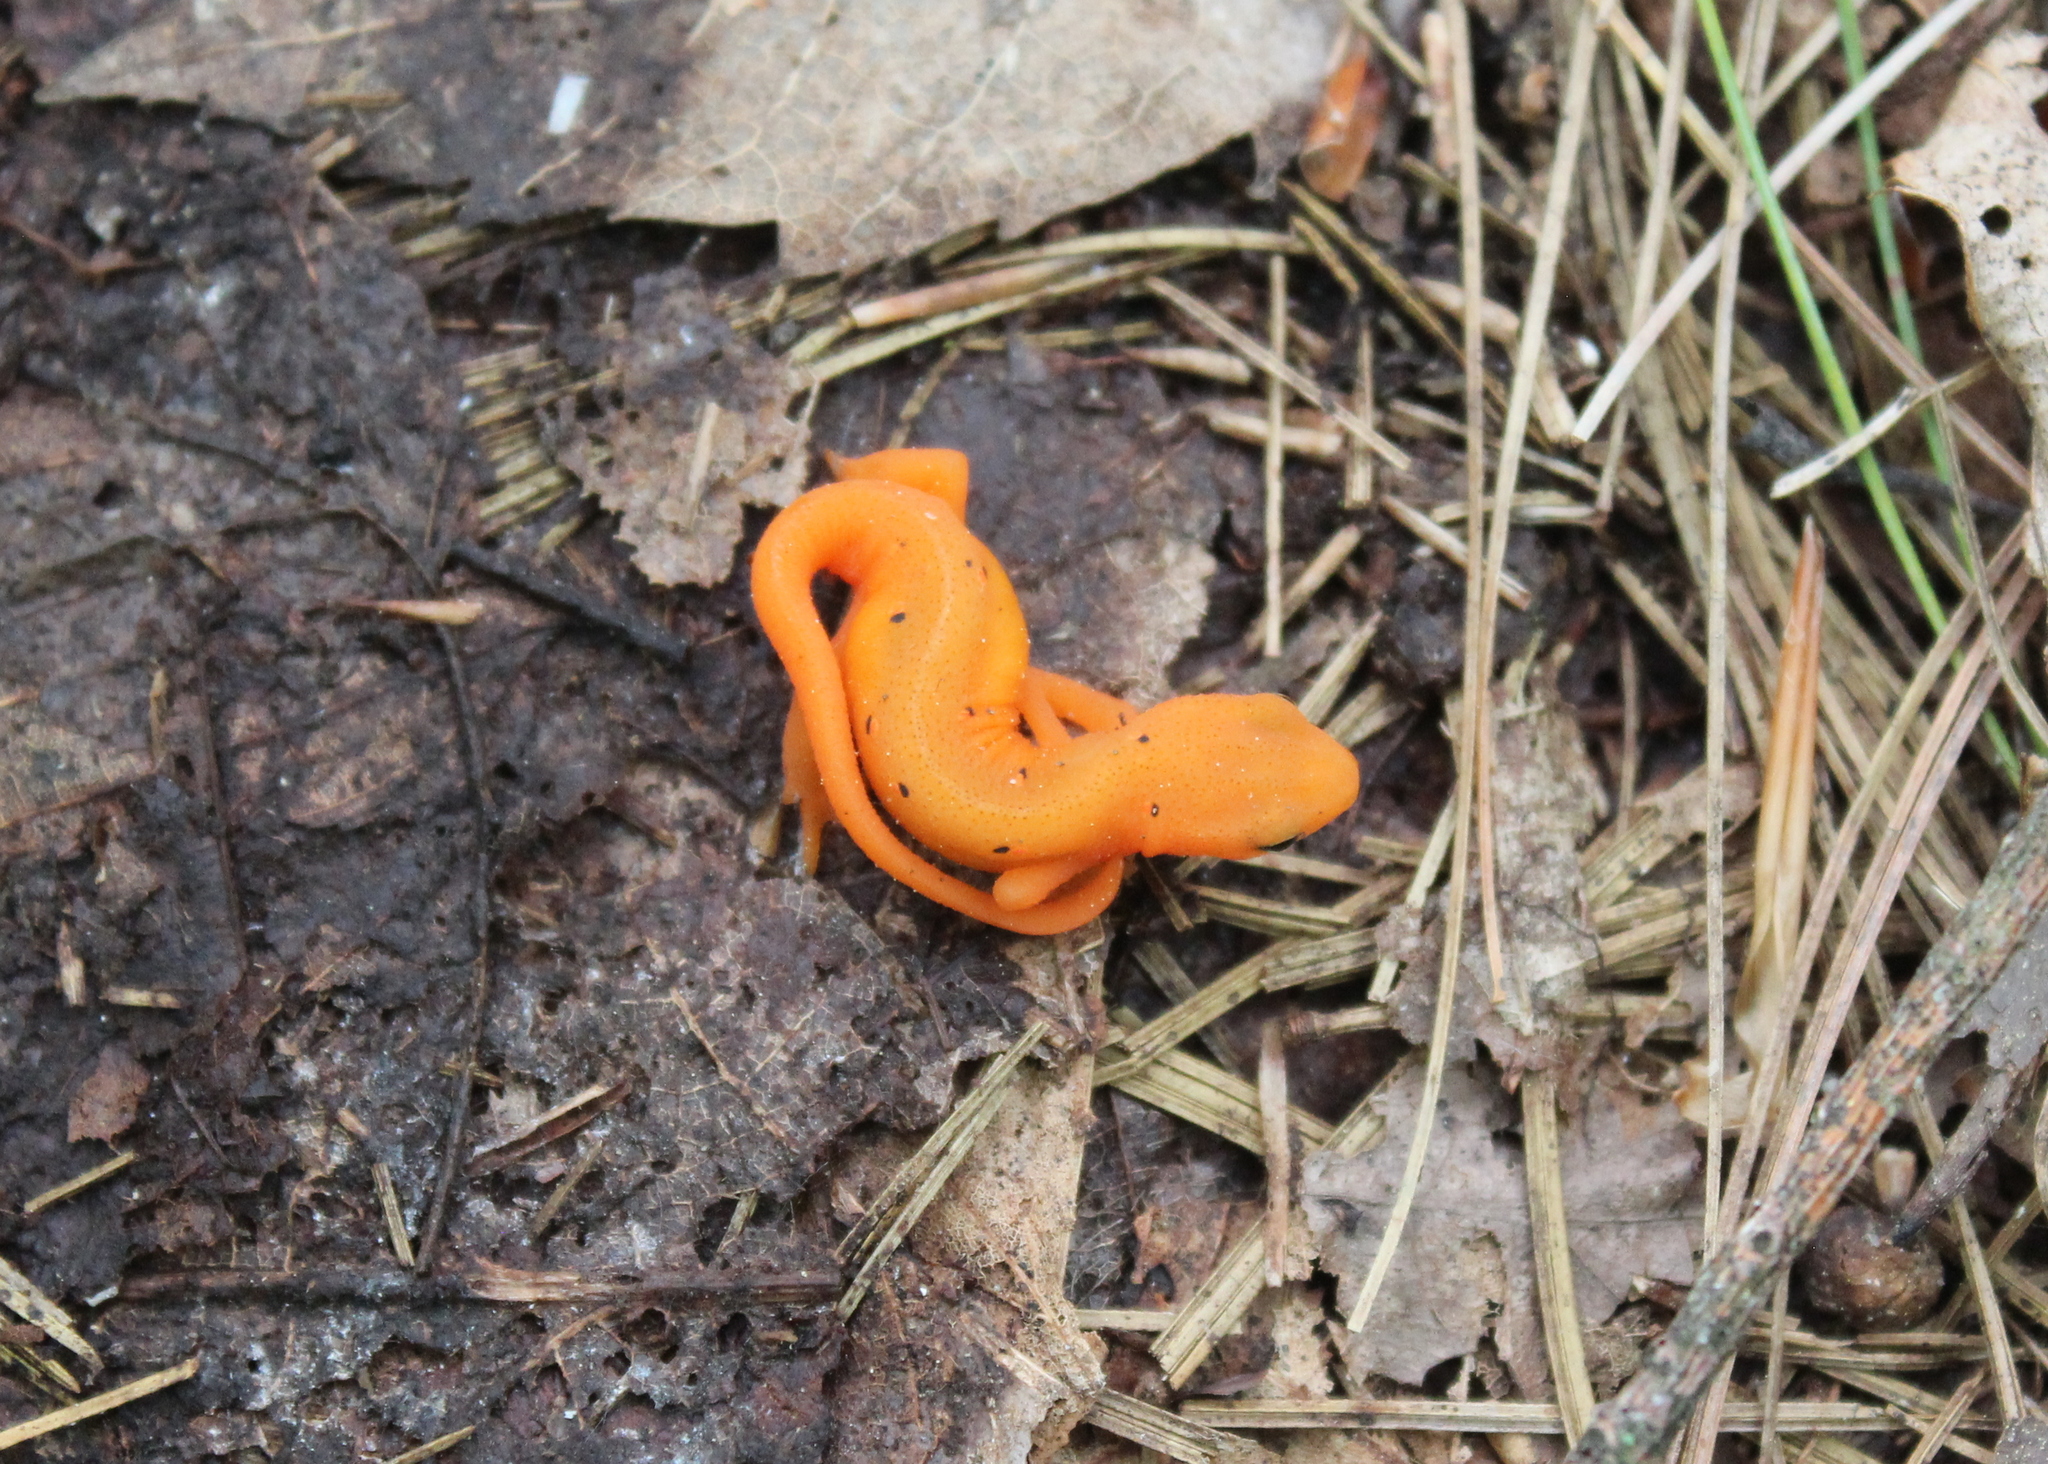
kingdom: Animalia
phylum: Chordata
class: Amphibia
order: Caudata
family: Salamandridae
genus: Notophthalmus
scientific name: Notophthalmus viridescens
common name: Eastern newt
